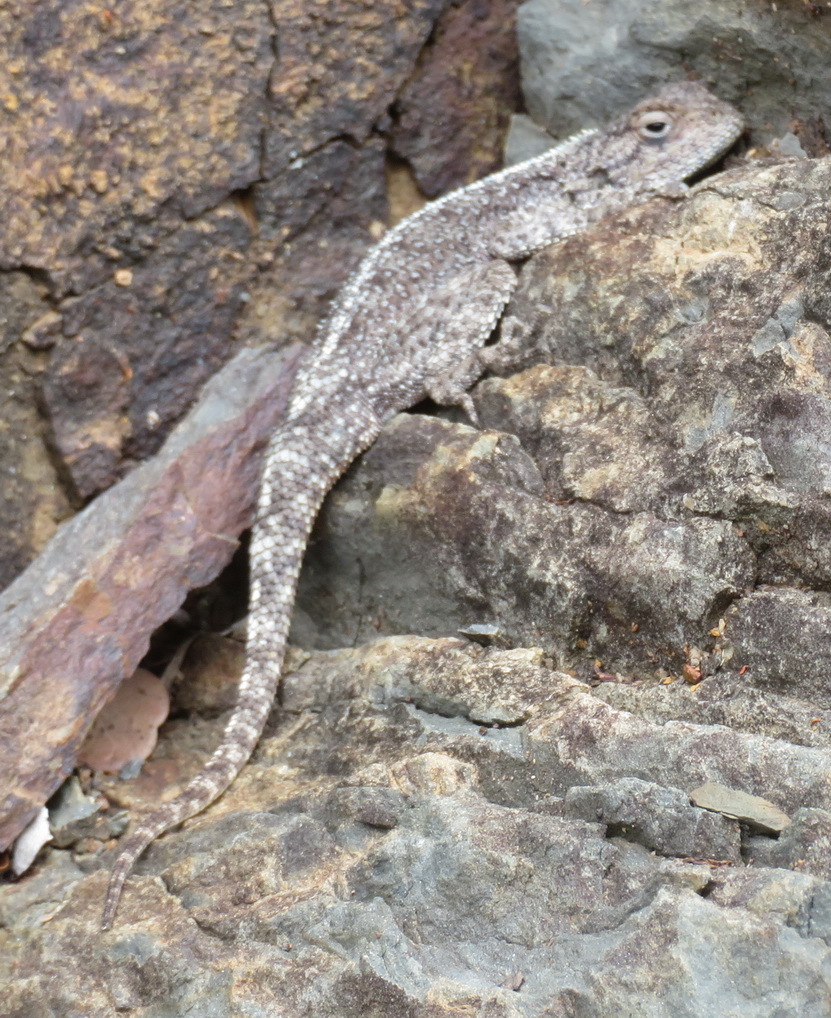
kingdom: Animalia
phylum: Chordata
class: Squamata
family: Agamidae
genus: Agama
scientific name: Agama atra
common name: Southern african rock agama
